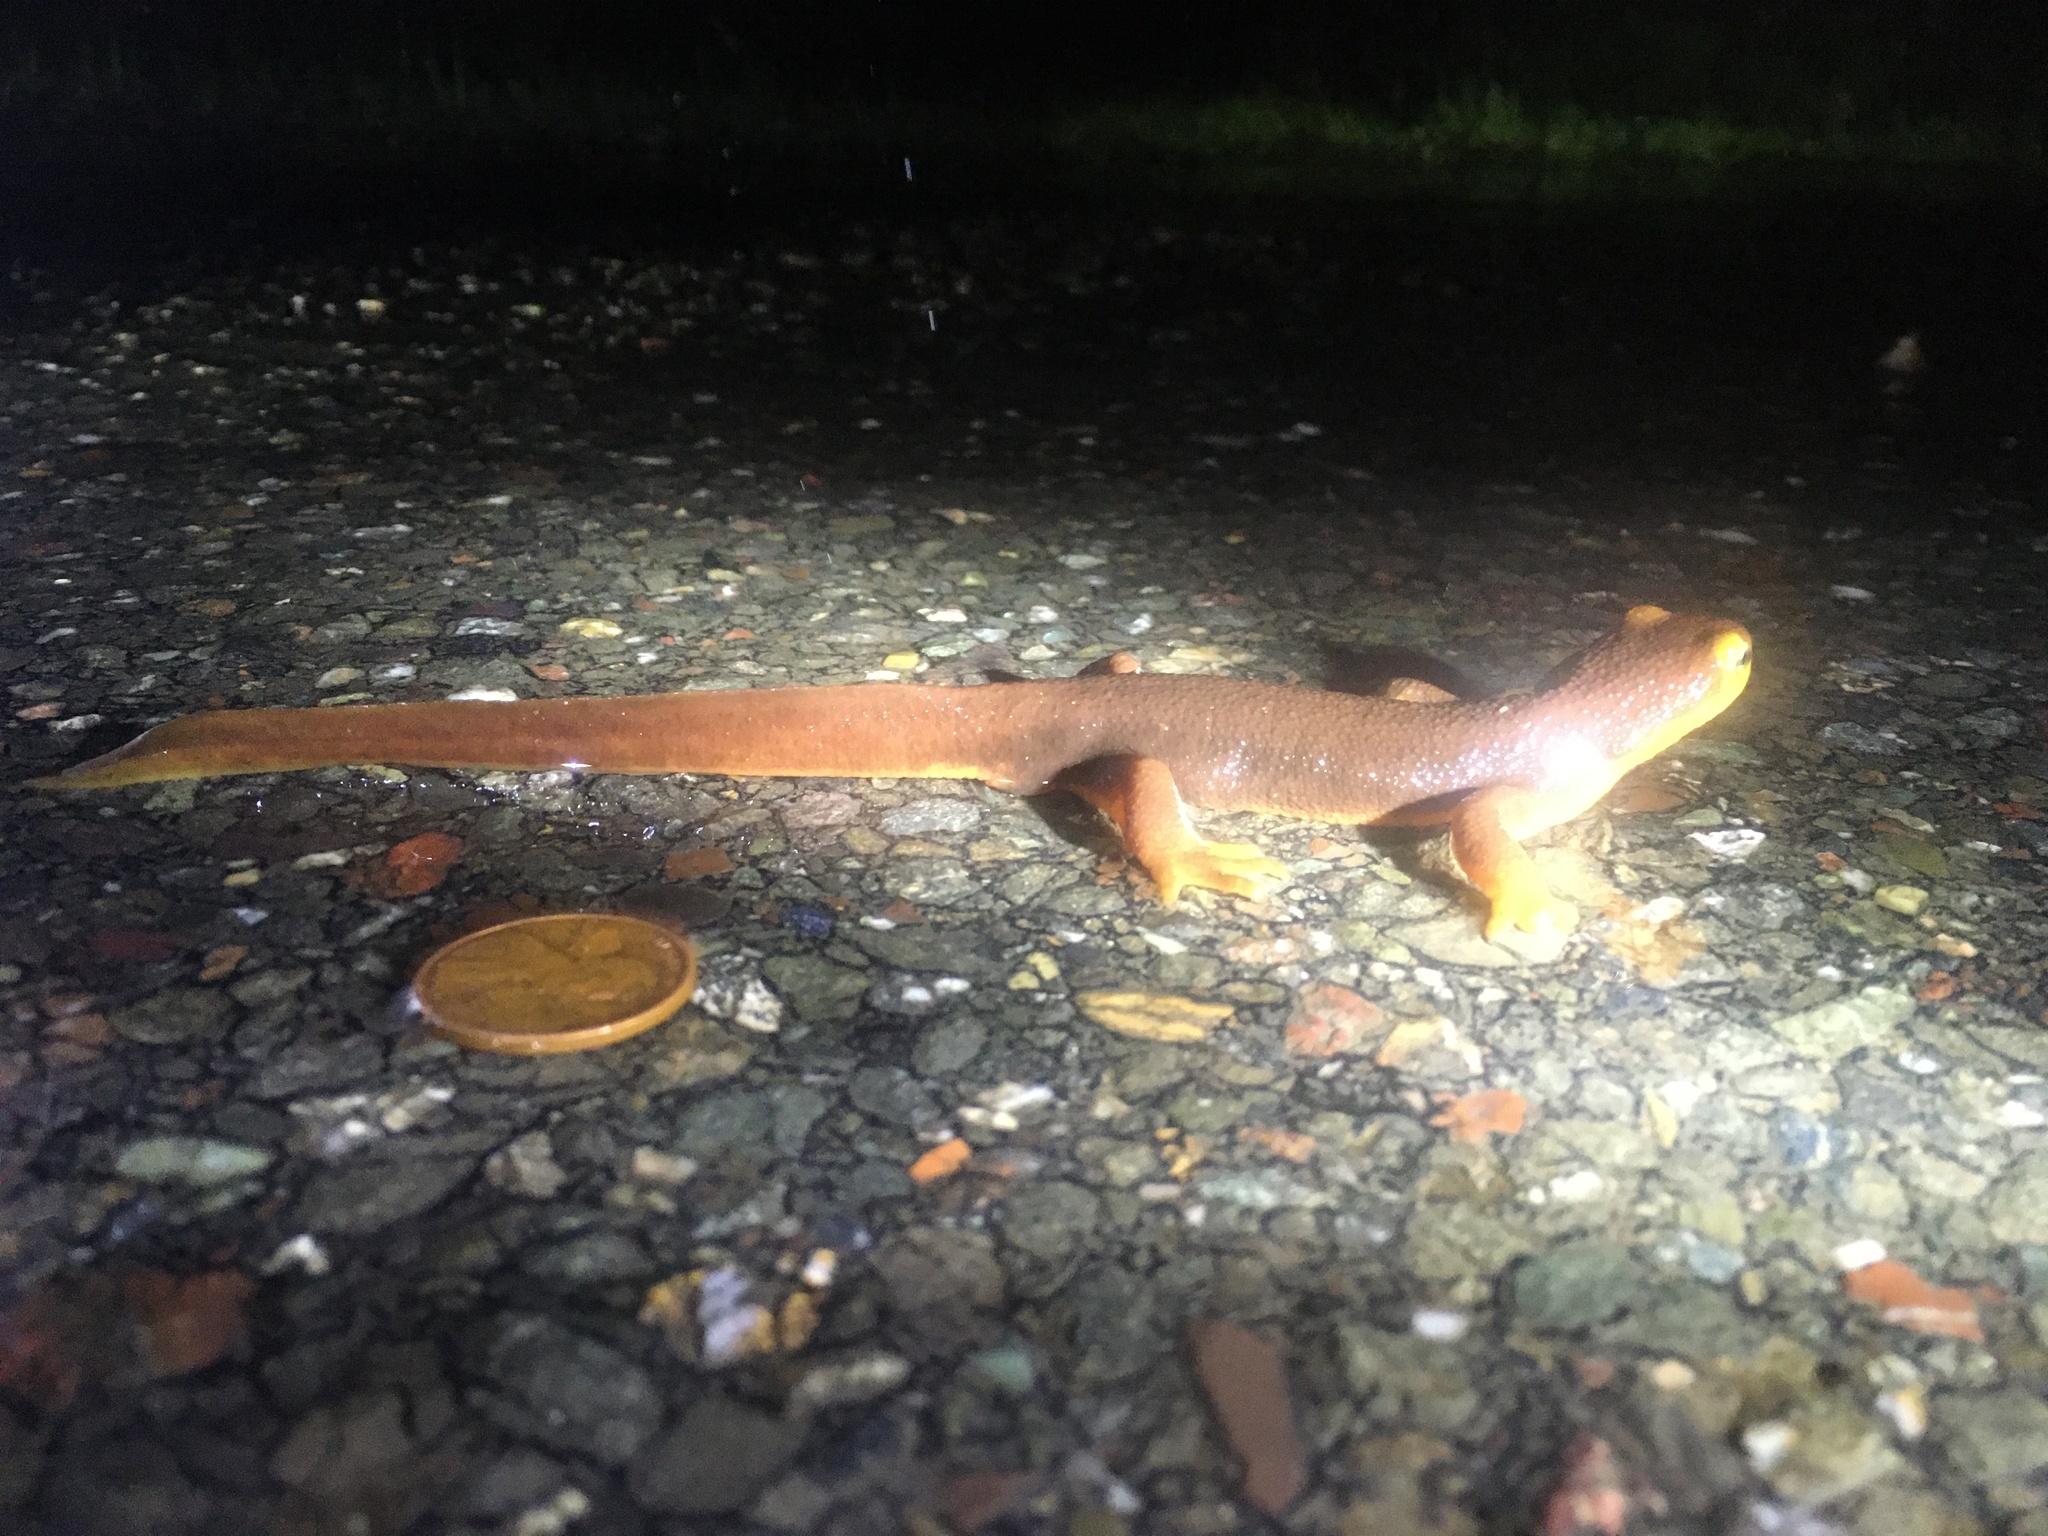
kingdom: Animalia
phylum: Chordata
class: Amphibia
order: Caudata
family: Salamandridae
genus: Taricha
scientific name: Taricha torosa
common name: California newt
